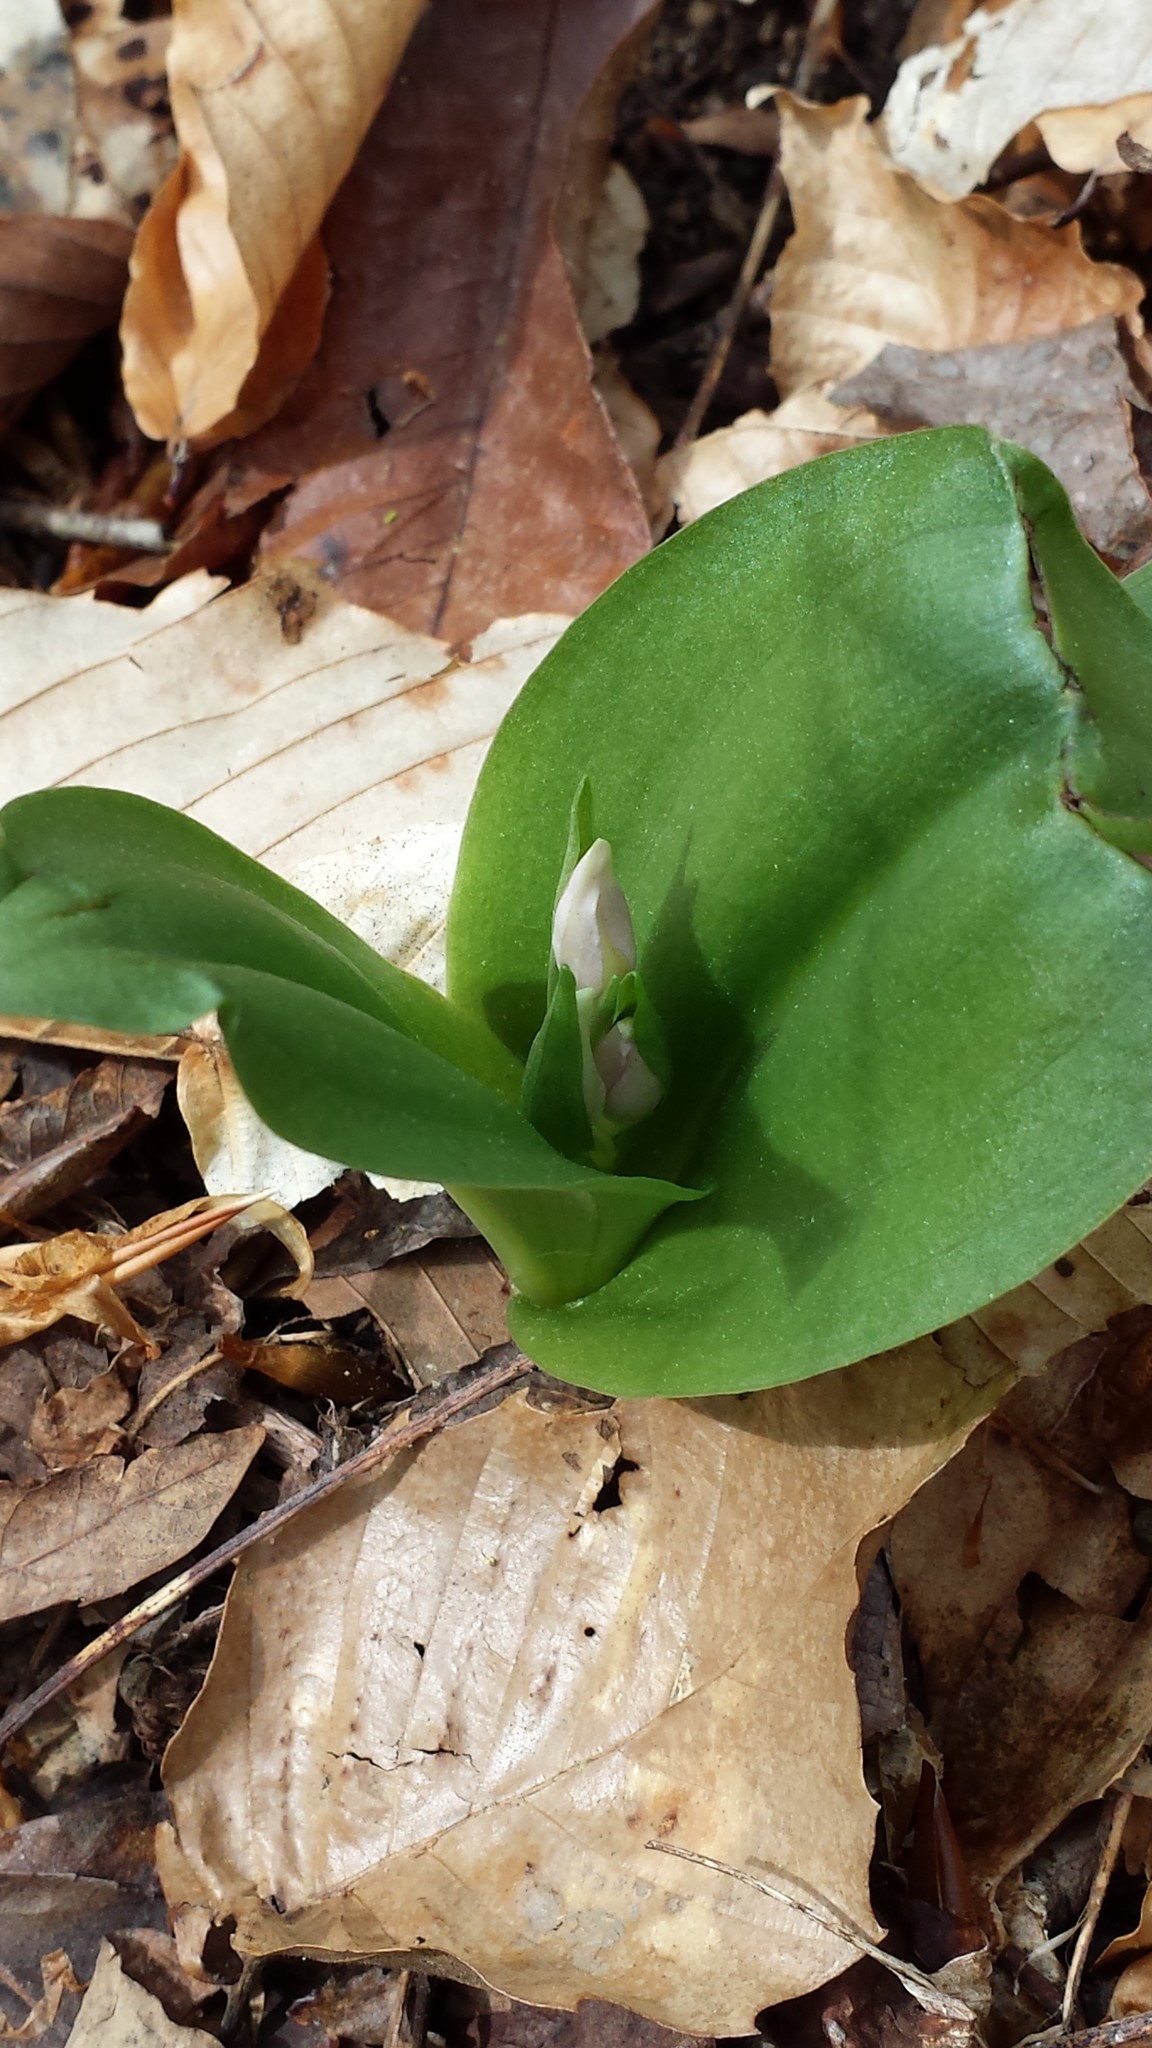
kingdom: Plantae
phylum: Tracheophyta
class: Liliopsida
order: Asparagales
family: Orchidaceae
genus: Galearis
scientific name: Galearis spectabilis
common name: Purple-hooded orchis
